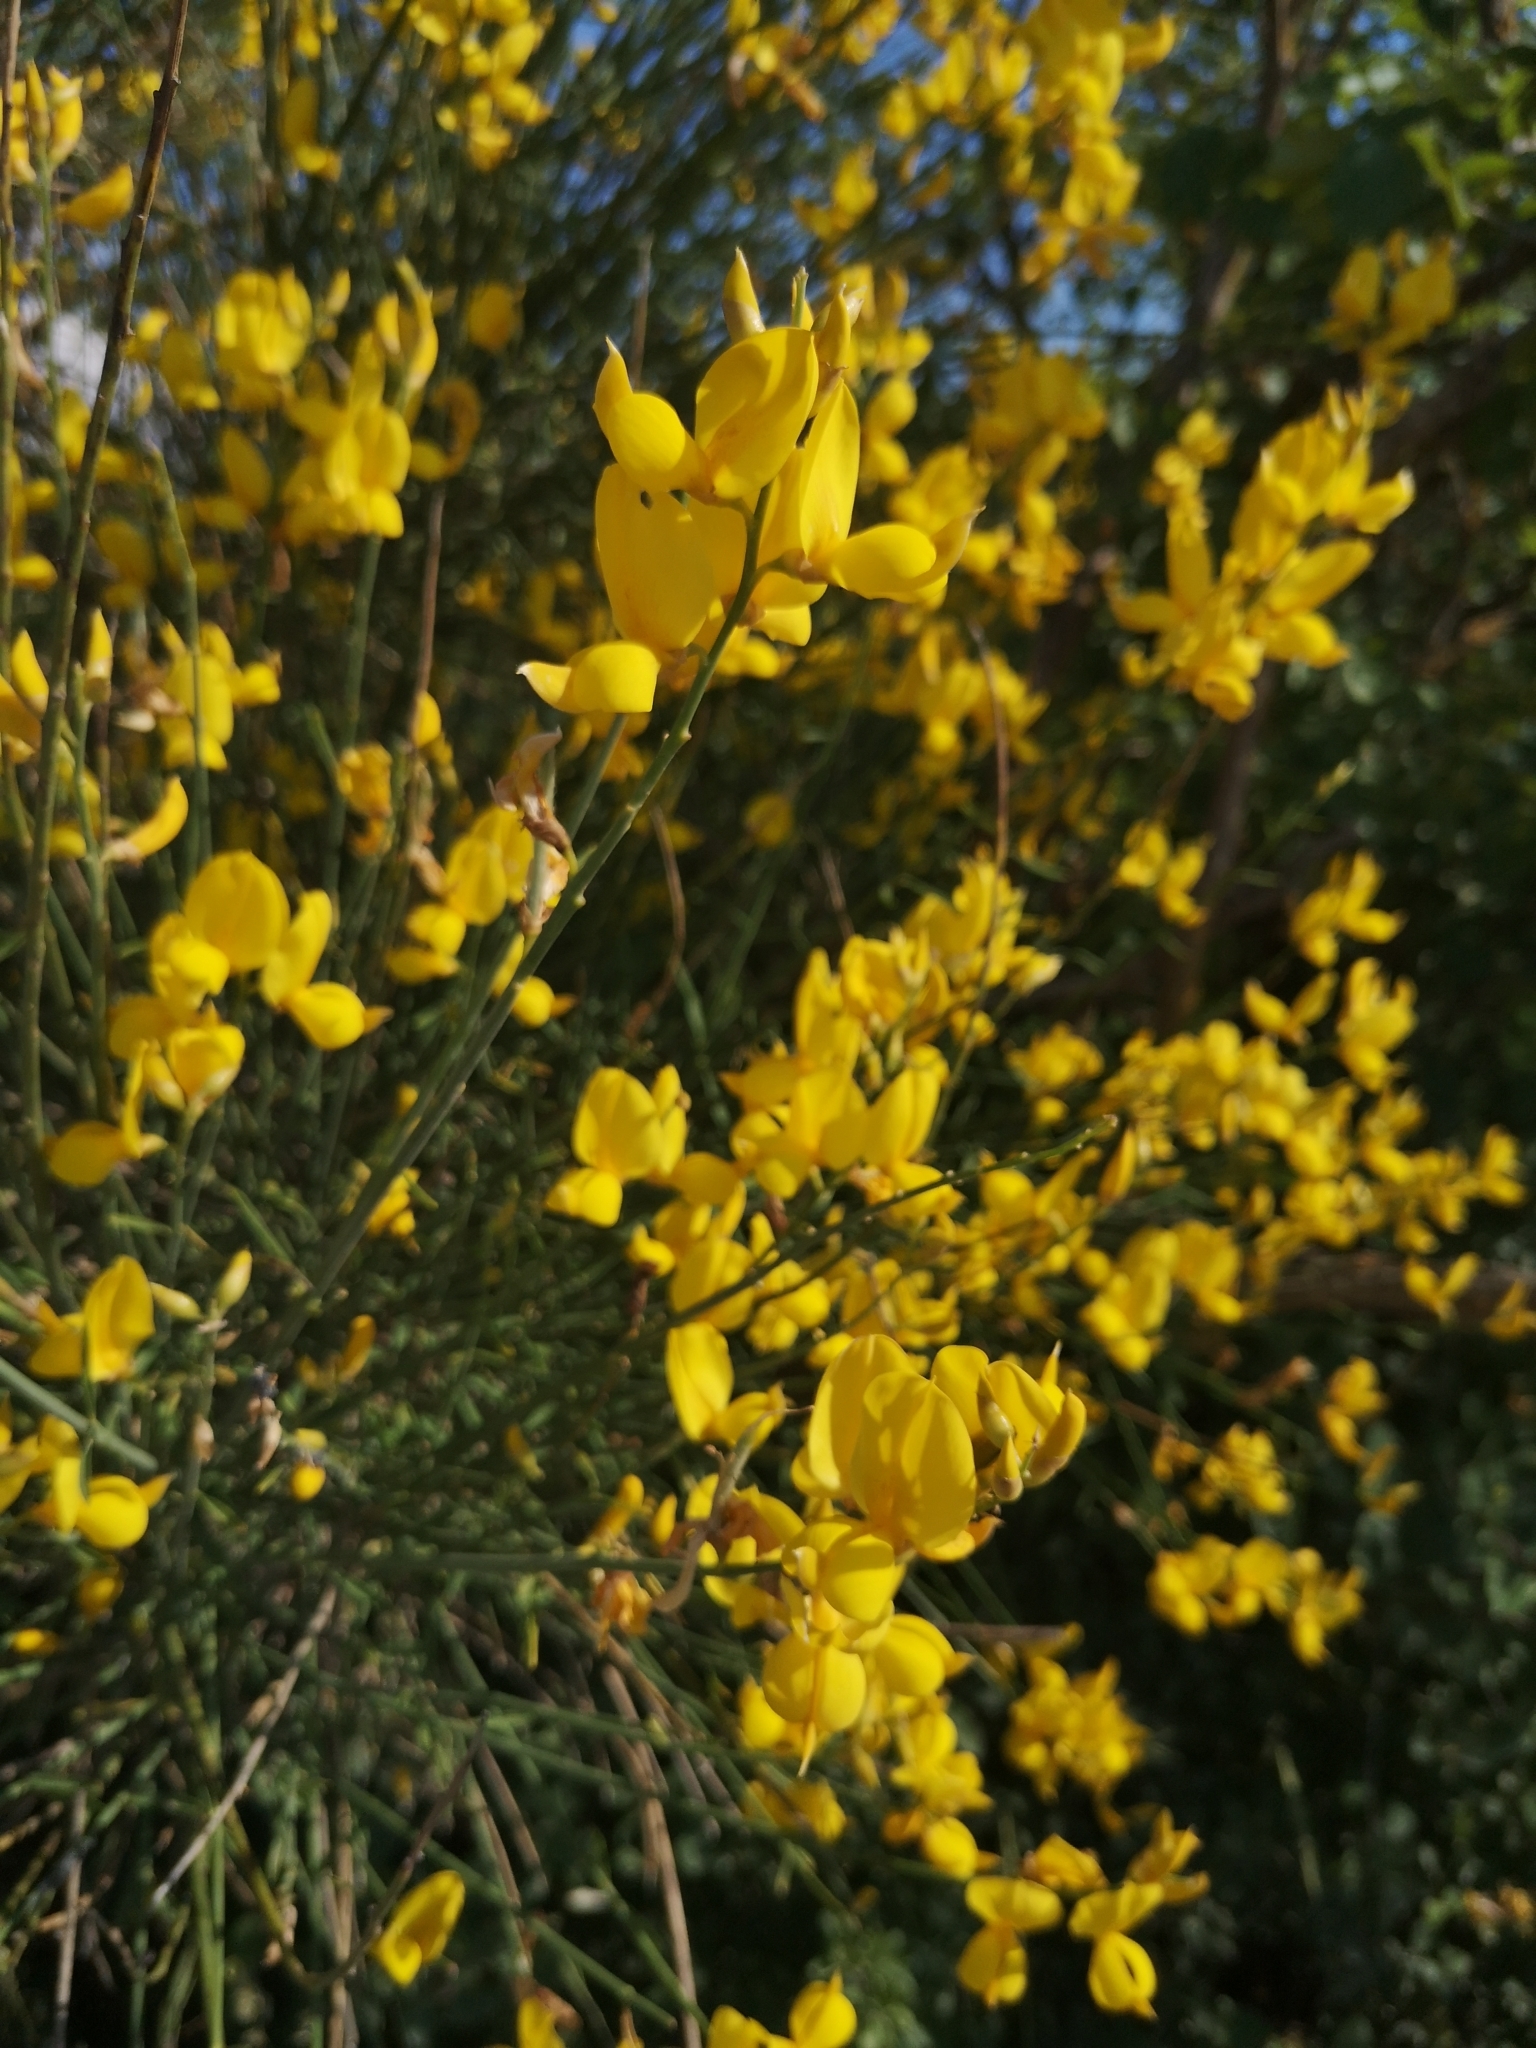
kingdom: Plantae
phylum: Tracheophyta
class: Magnoliopsida
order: Fabales
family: Fabaceae
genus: Spartium
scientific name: Spartium junceum
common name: Spanish broom
